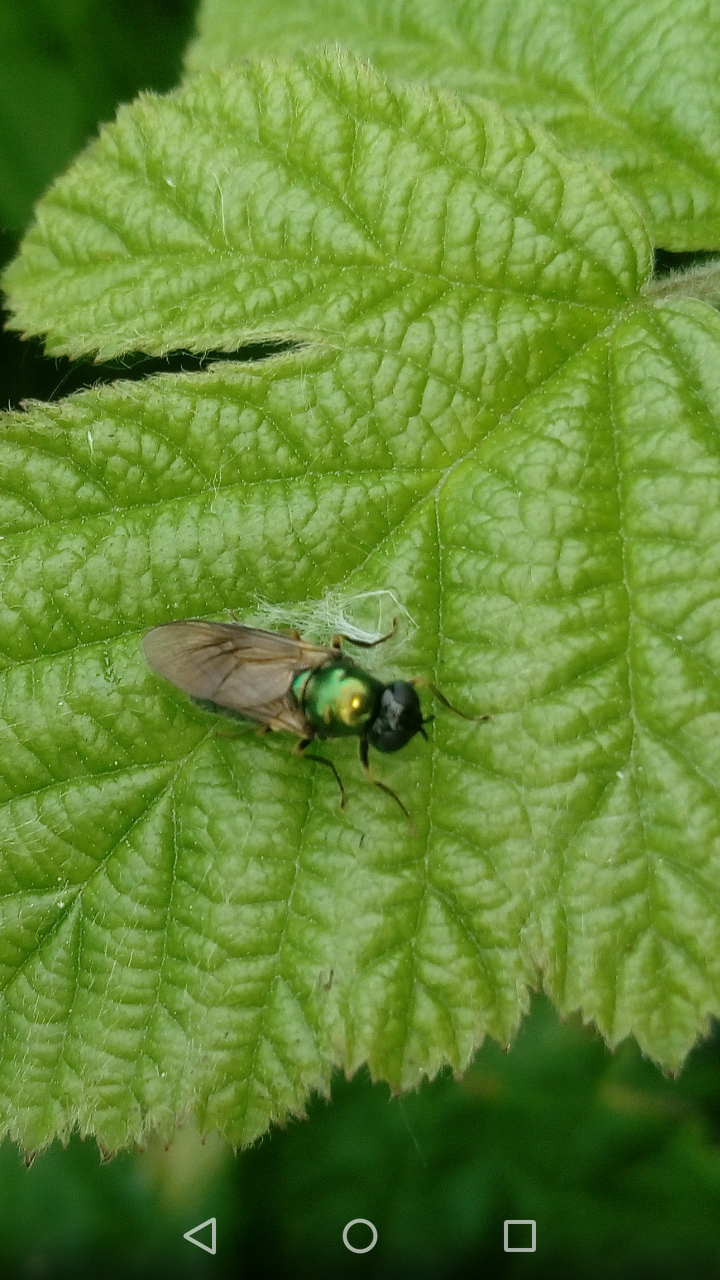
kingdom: Animalia
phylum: Arthropoda
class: Insecta
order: Diptera
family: Stratiomyidae
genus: Chloromyia
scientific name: Chloromyia formosa
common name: Soldier fly
